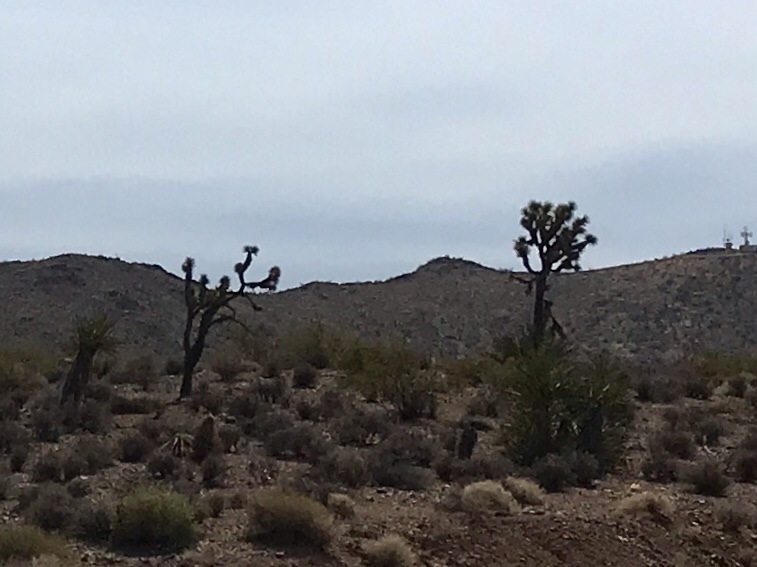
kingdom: Plantae
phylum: Tracheophyta
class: Liliopsida
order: Asparagales
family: Asparagaceae
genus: Yucca
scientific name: Yucca brevifolia
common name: Joshua tree
